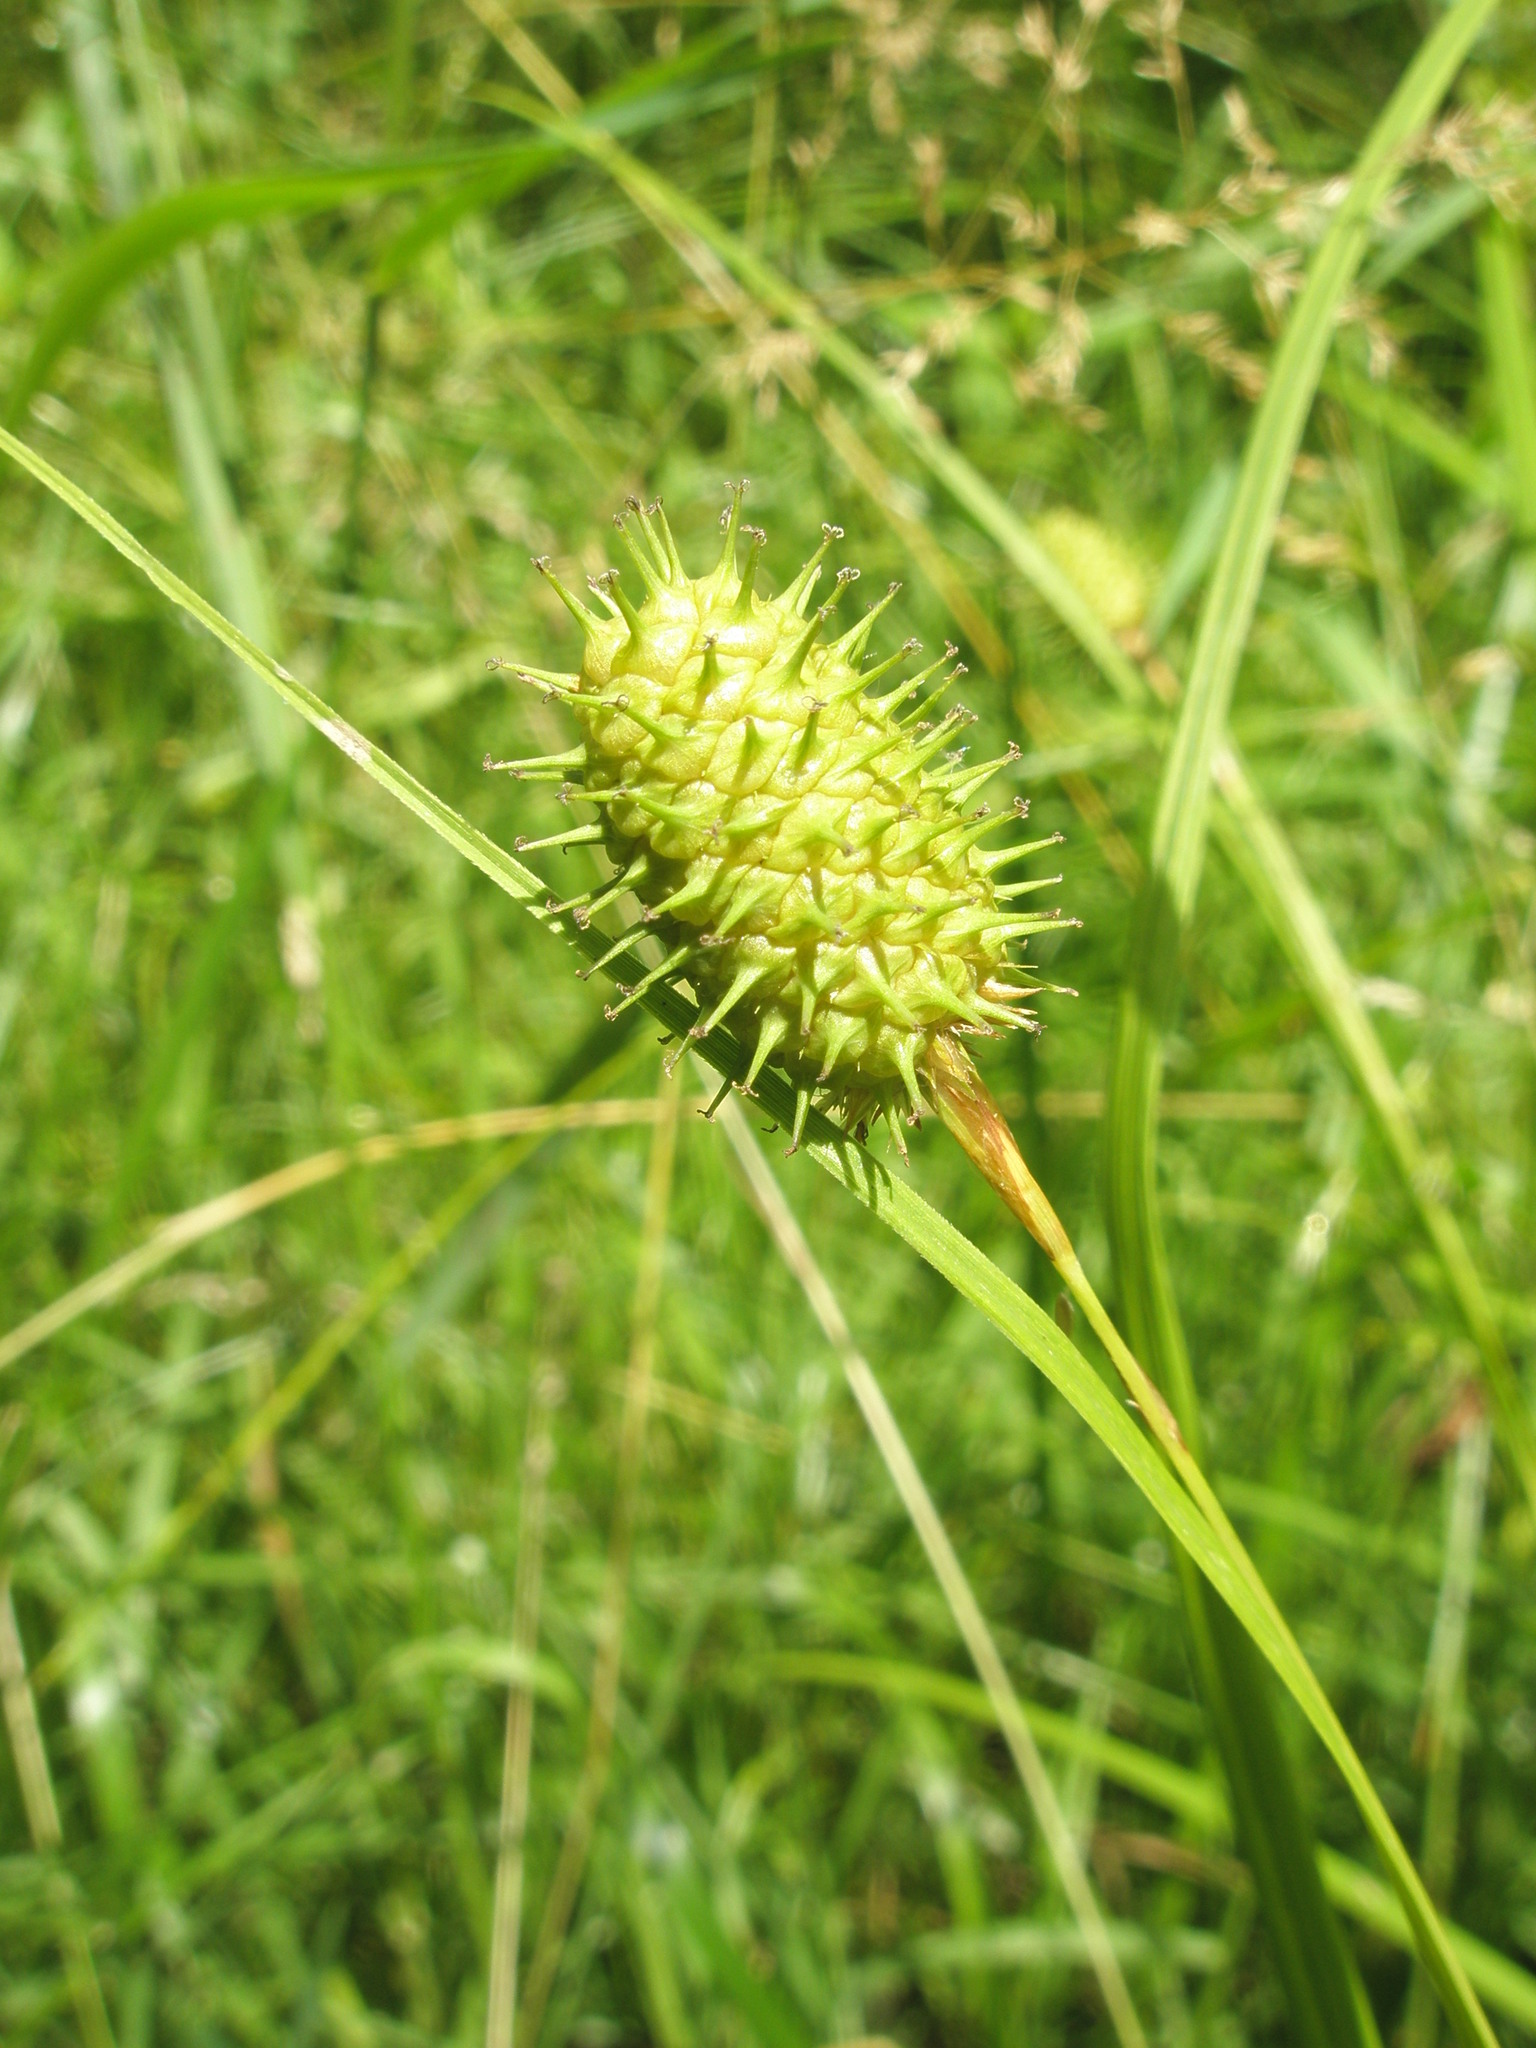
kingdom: Plantae
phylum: Tracheophyta
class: Liliopsida
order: Poales
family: Cyperaceae
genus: Carex
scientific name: Carex squarrosa
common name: Narrow-leaved cattail sedge
